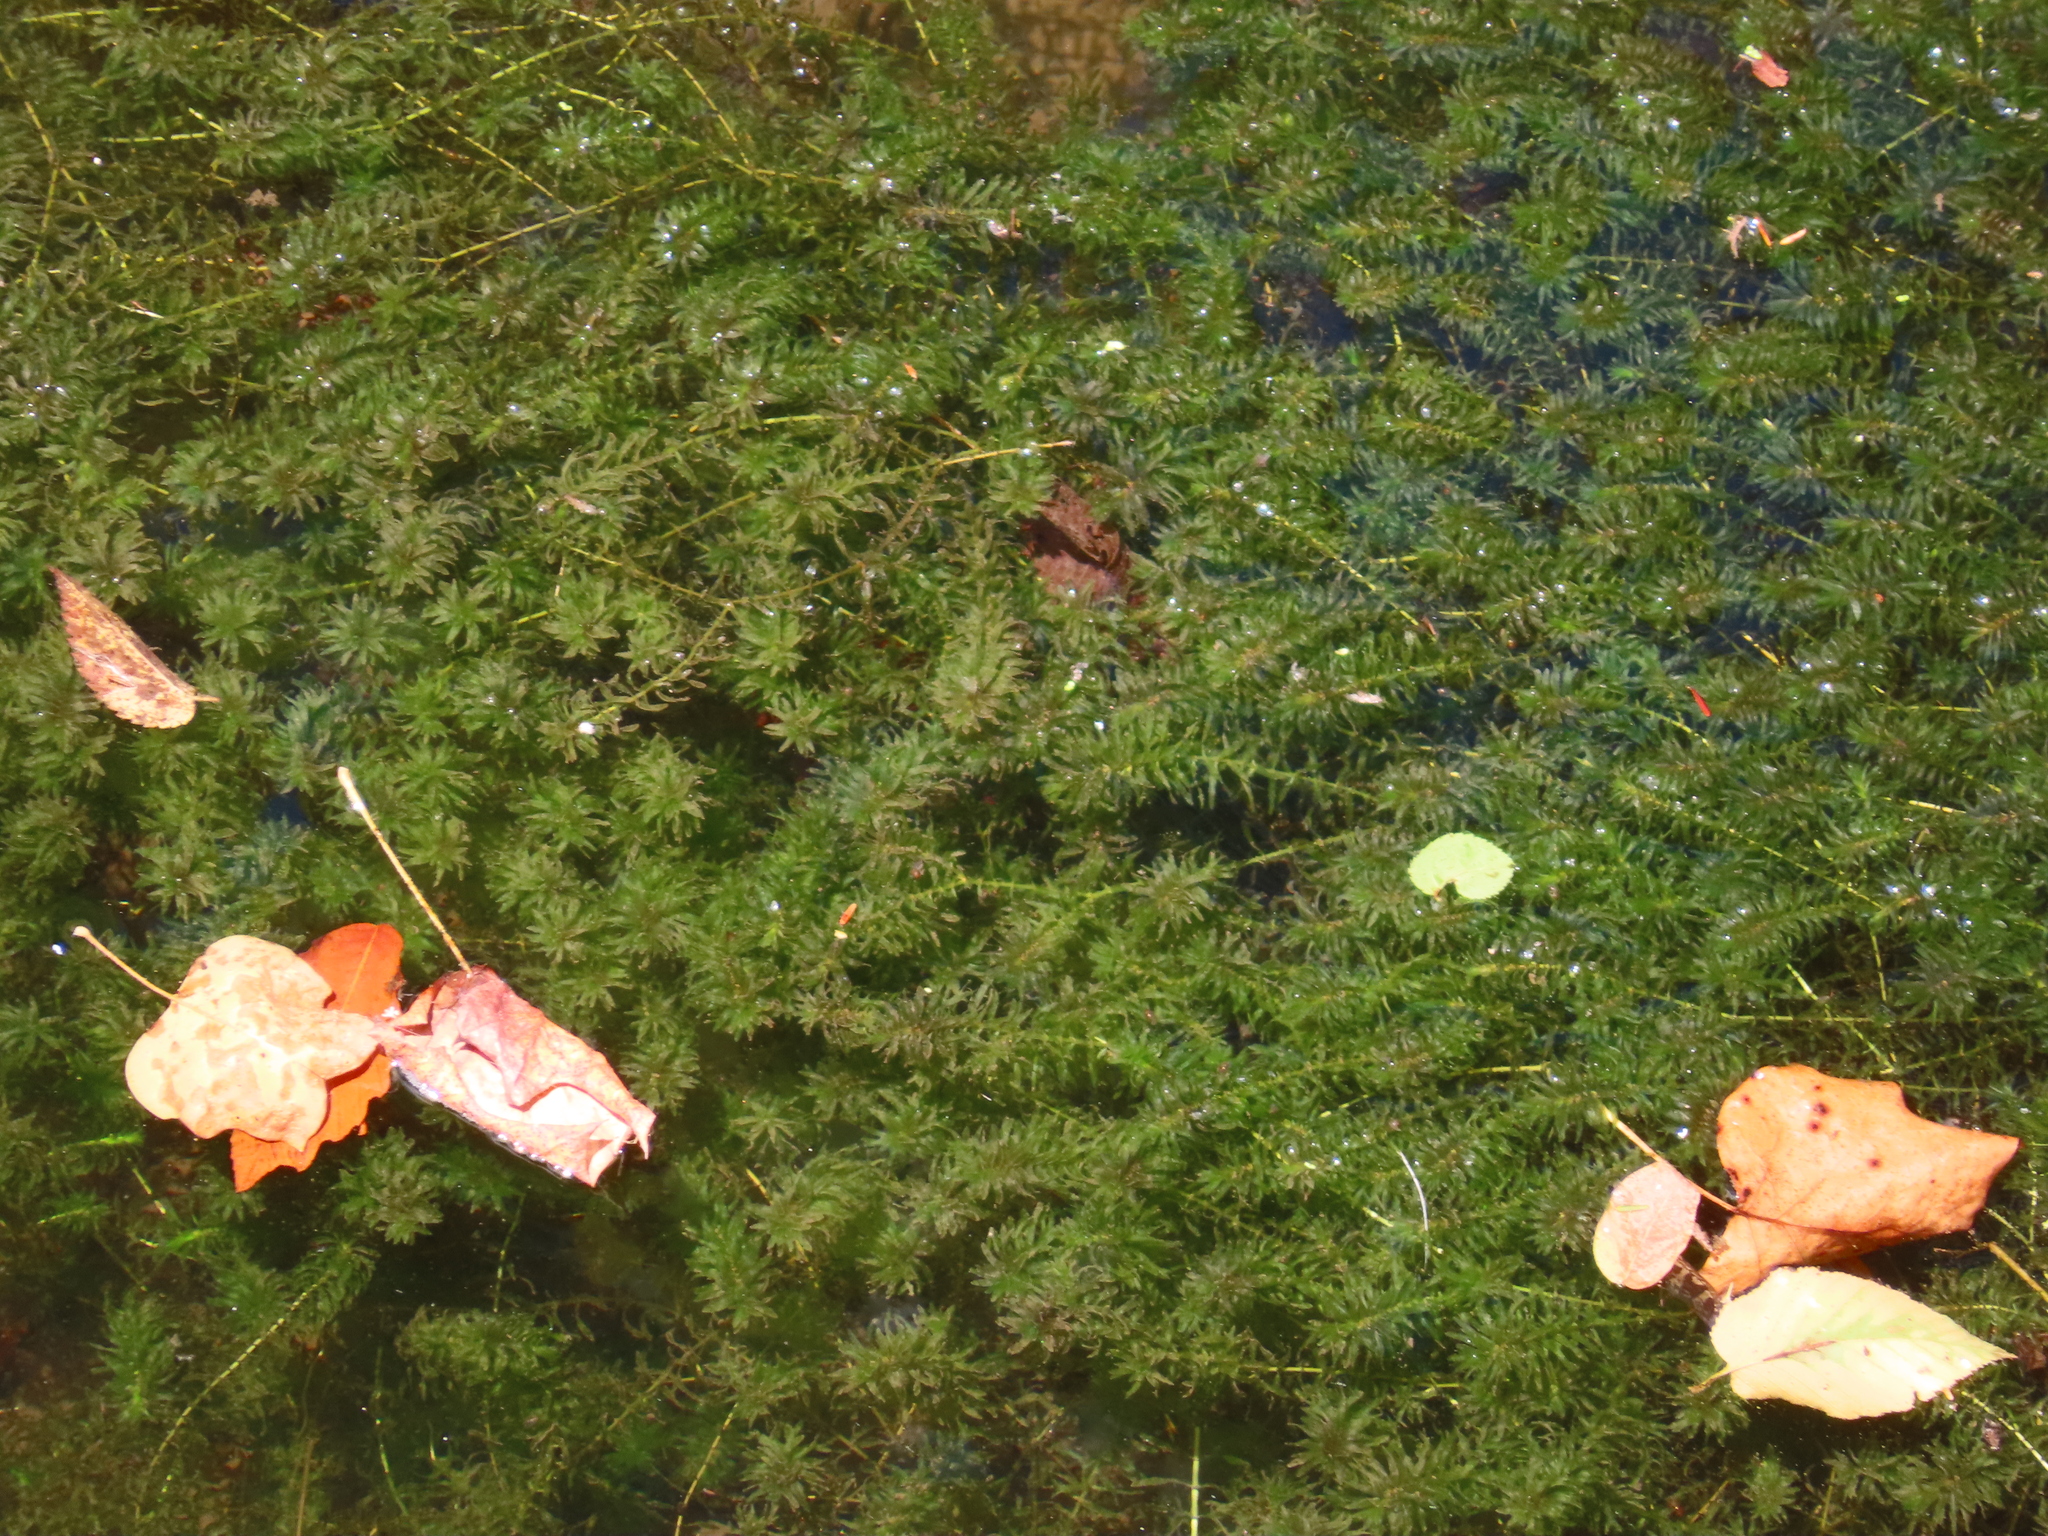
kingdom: Plantae
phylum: Tracheophyta
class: Liliopsida
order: Alismatales
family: Hydrocharitaceae
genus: Hydrilla
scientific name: Hydrilla verticillata
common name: Florida-elodea
